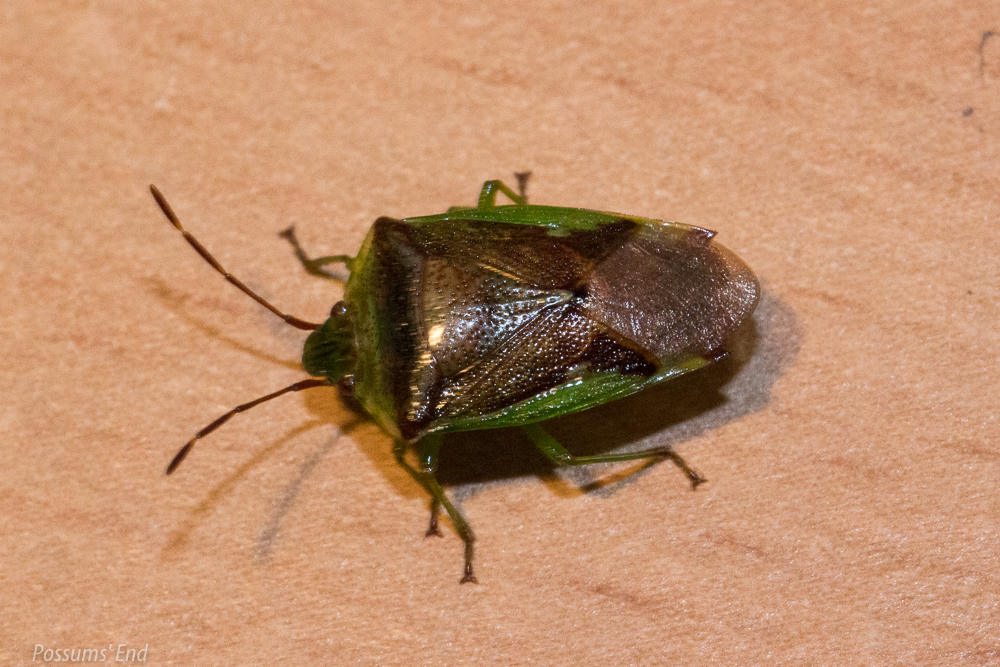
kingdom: Animalia
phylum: Arthropoda
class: Insecta
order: Hemiptera
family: Acanthosomatidae
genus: Oncacontias
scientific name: Oncacontias vittatus
